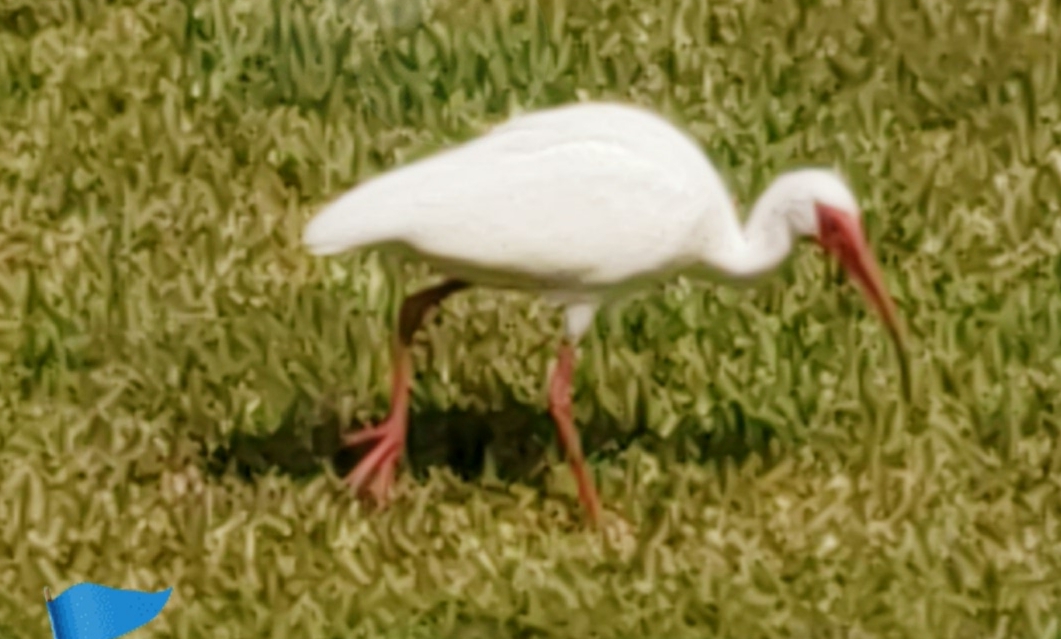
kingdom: Animalia
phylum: Chordata
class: Aves
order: Pelecaniformes
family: Threskiornithidae
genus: Eudocimus
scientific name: Eudocimus albus
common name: White ibis
